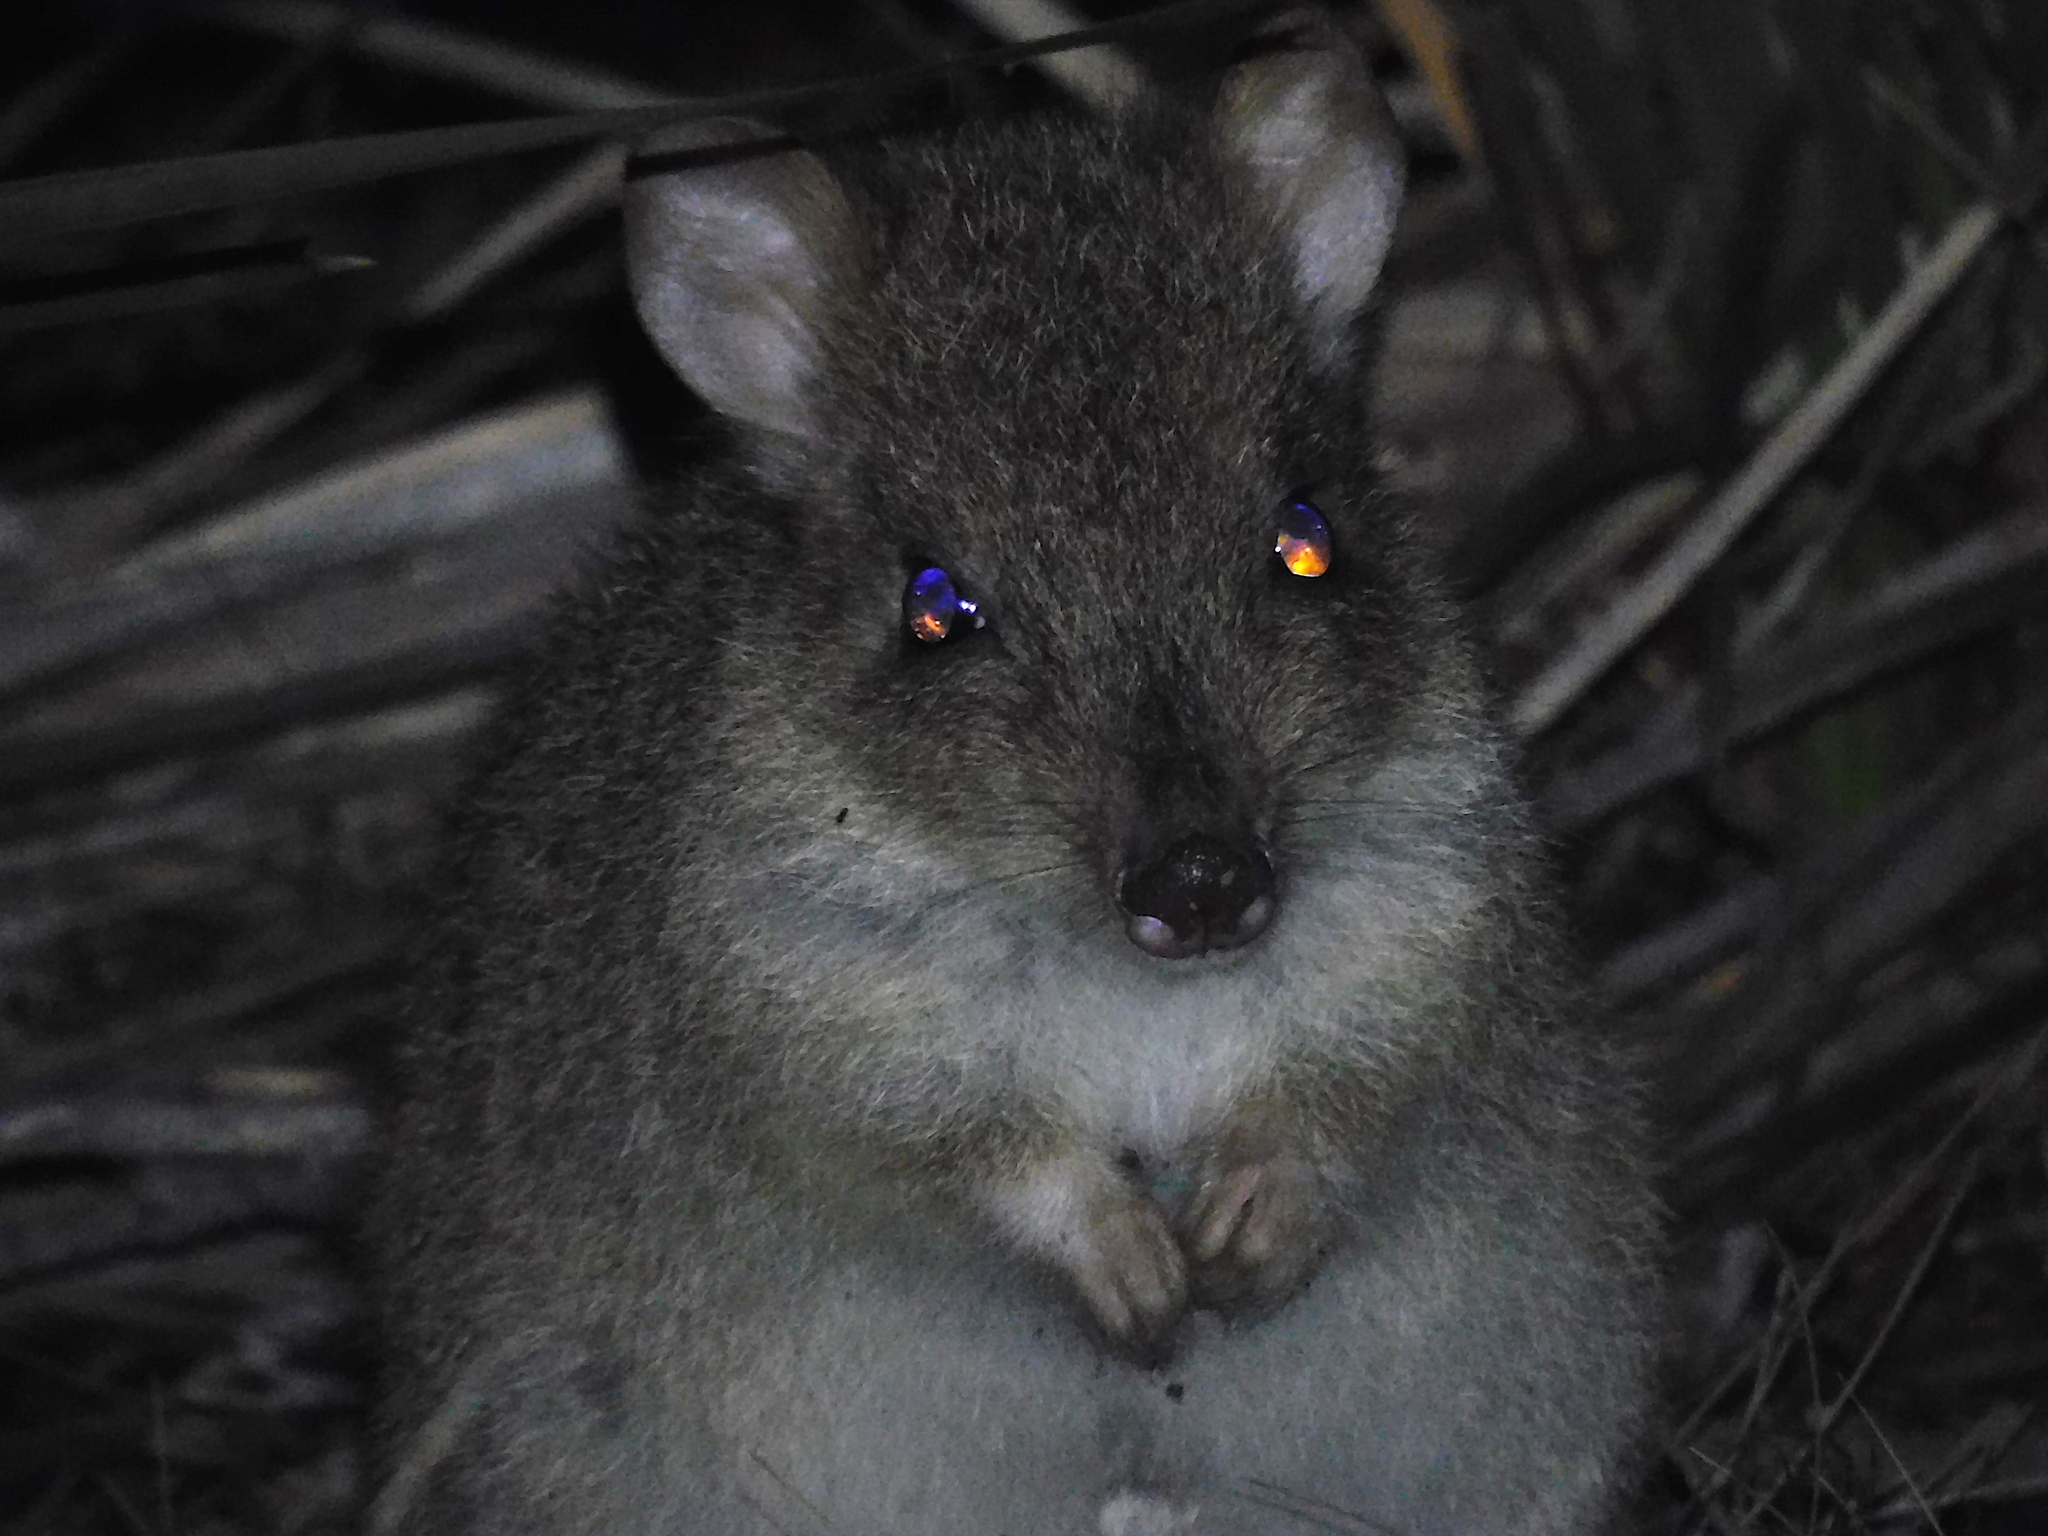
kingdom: Animalia
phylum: Chordata
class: Mammalia
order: Diprotodontia
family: Potoroidae
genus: Bettongia
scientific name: Bettongia gaimardi
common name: Eastern bettong
